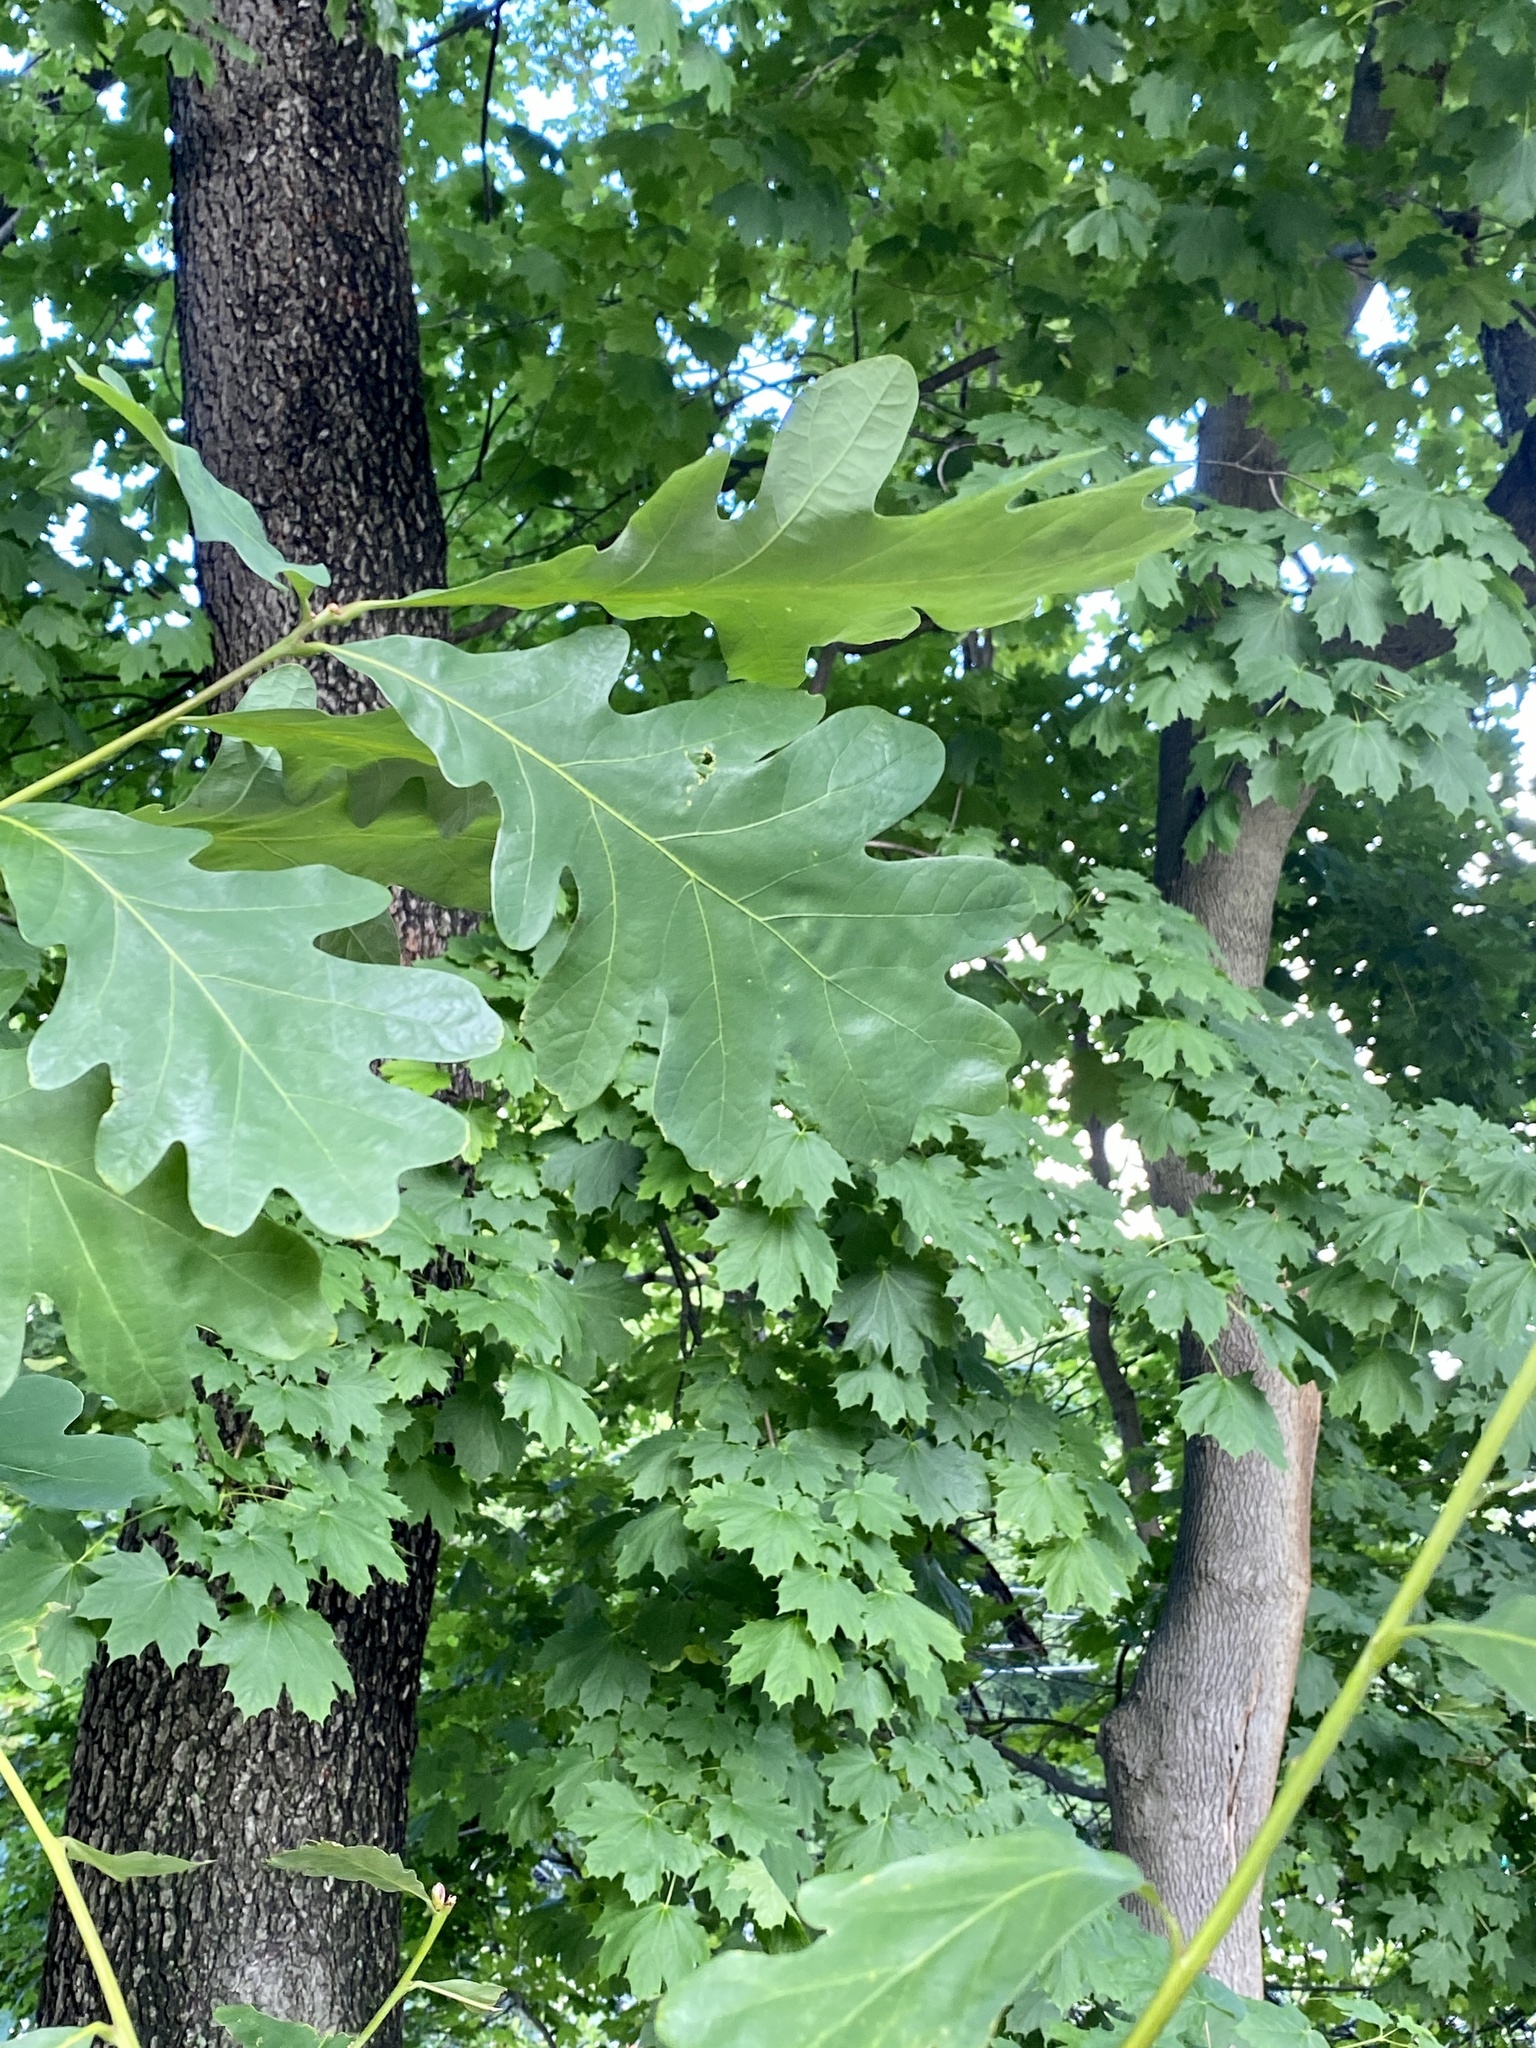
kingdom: Plantae
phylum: Tracheophyta
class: Magnoliopsida
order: Fagales
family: Fagaceae
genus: Quercus
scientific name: Quercus alba
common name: White oak
